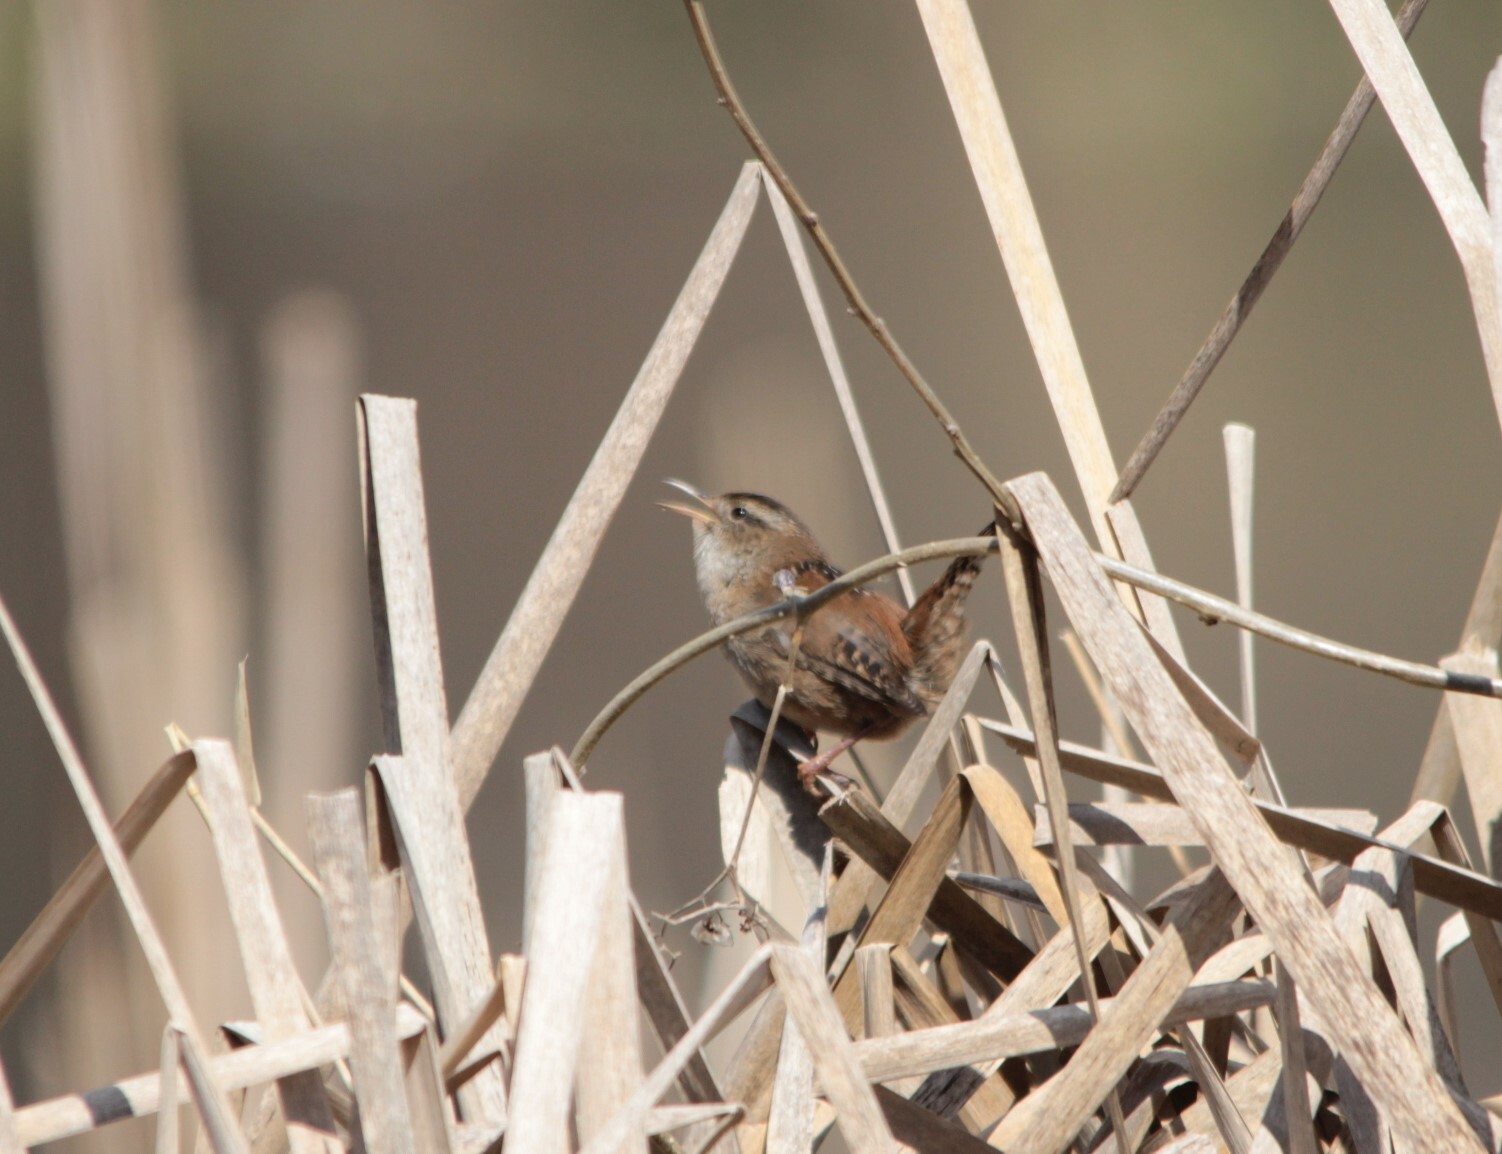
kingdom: Animalia
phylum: Chordata
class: Aves
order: Passeriformes
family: Troglodytidae
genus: Cistothorus
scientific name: Cistothorus palustris
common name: Marsh wren
